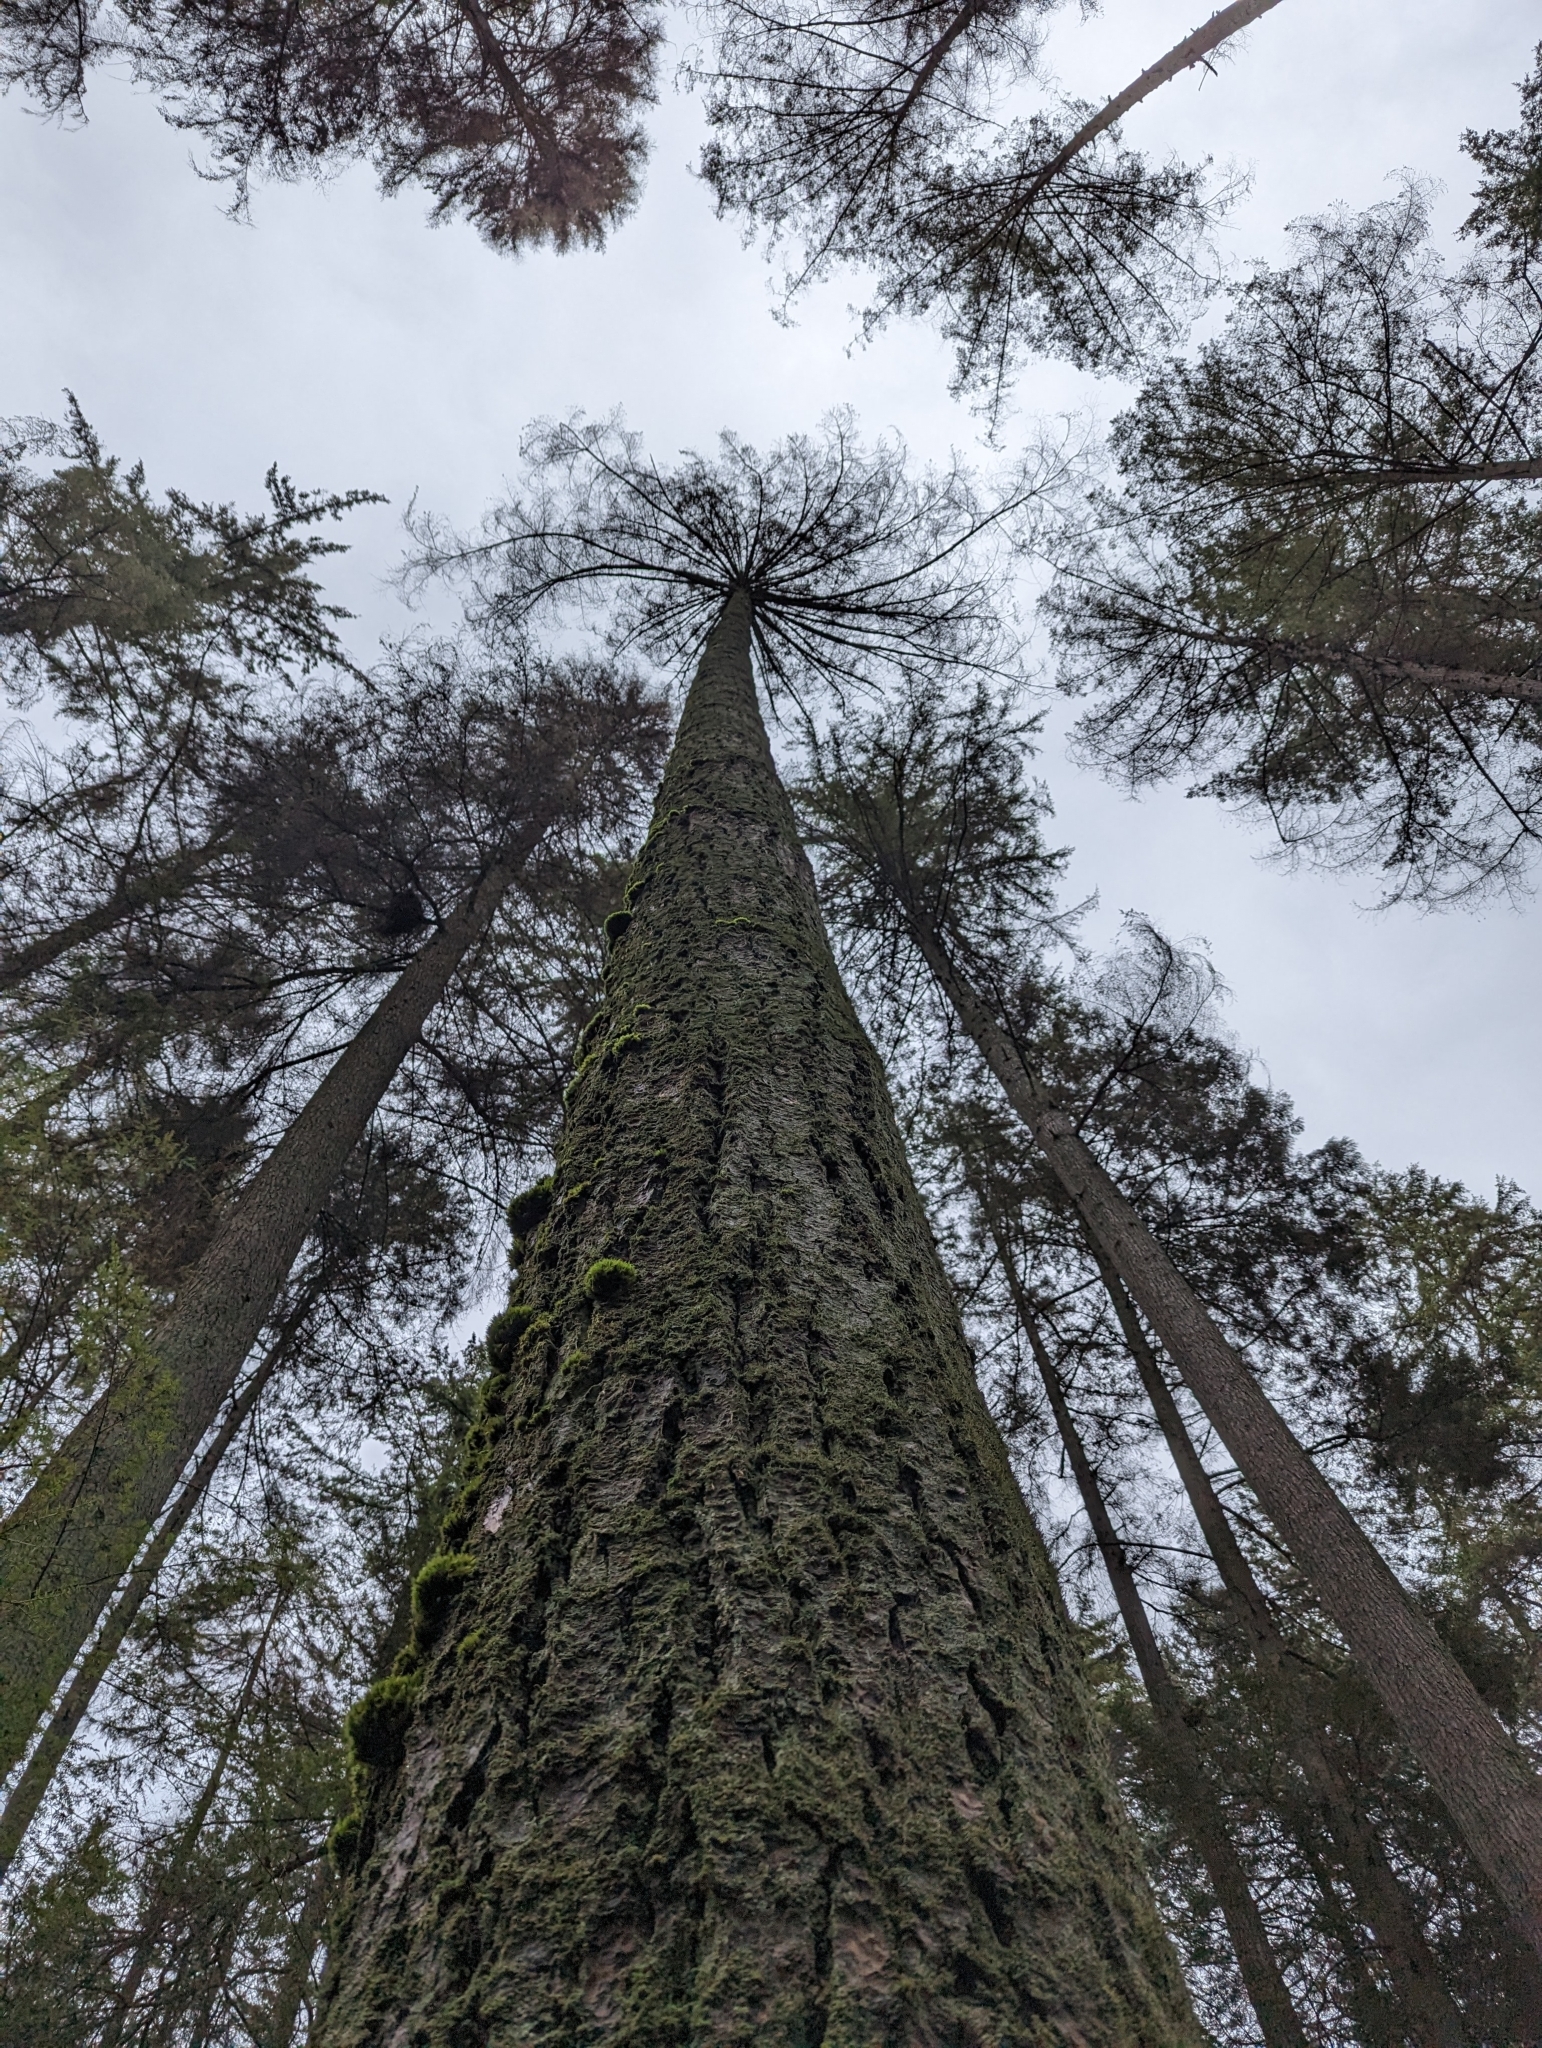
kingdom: Plantae
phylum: Tracheophyta
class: Pinopsida
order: Pinales
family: Pinaceae
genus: Pseudotsuga
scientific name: Pseudotsuga menziesii
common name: Douglas fir
